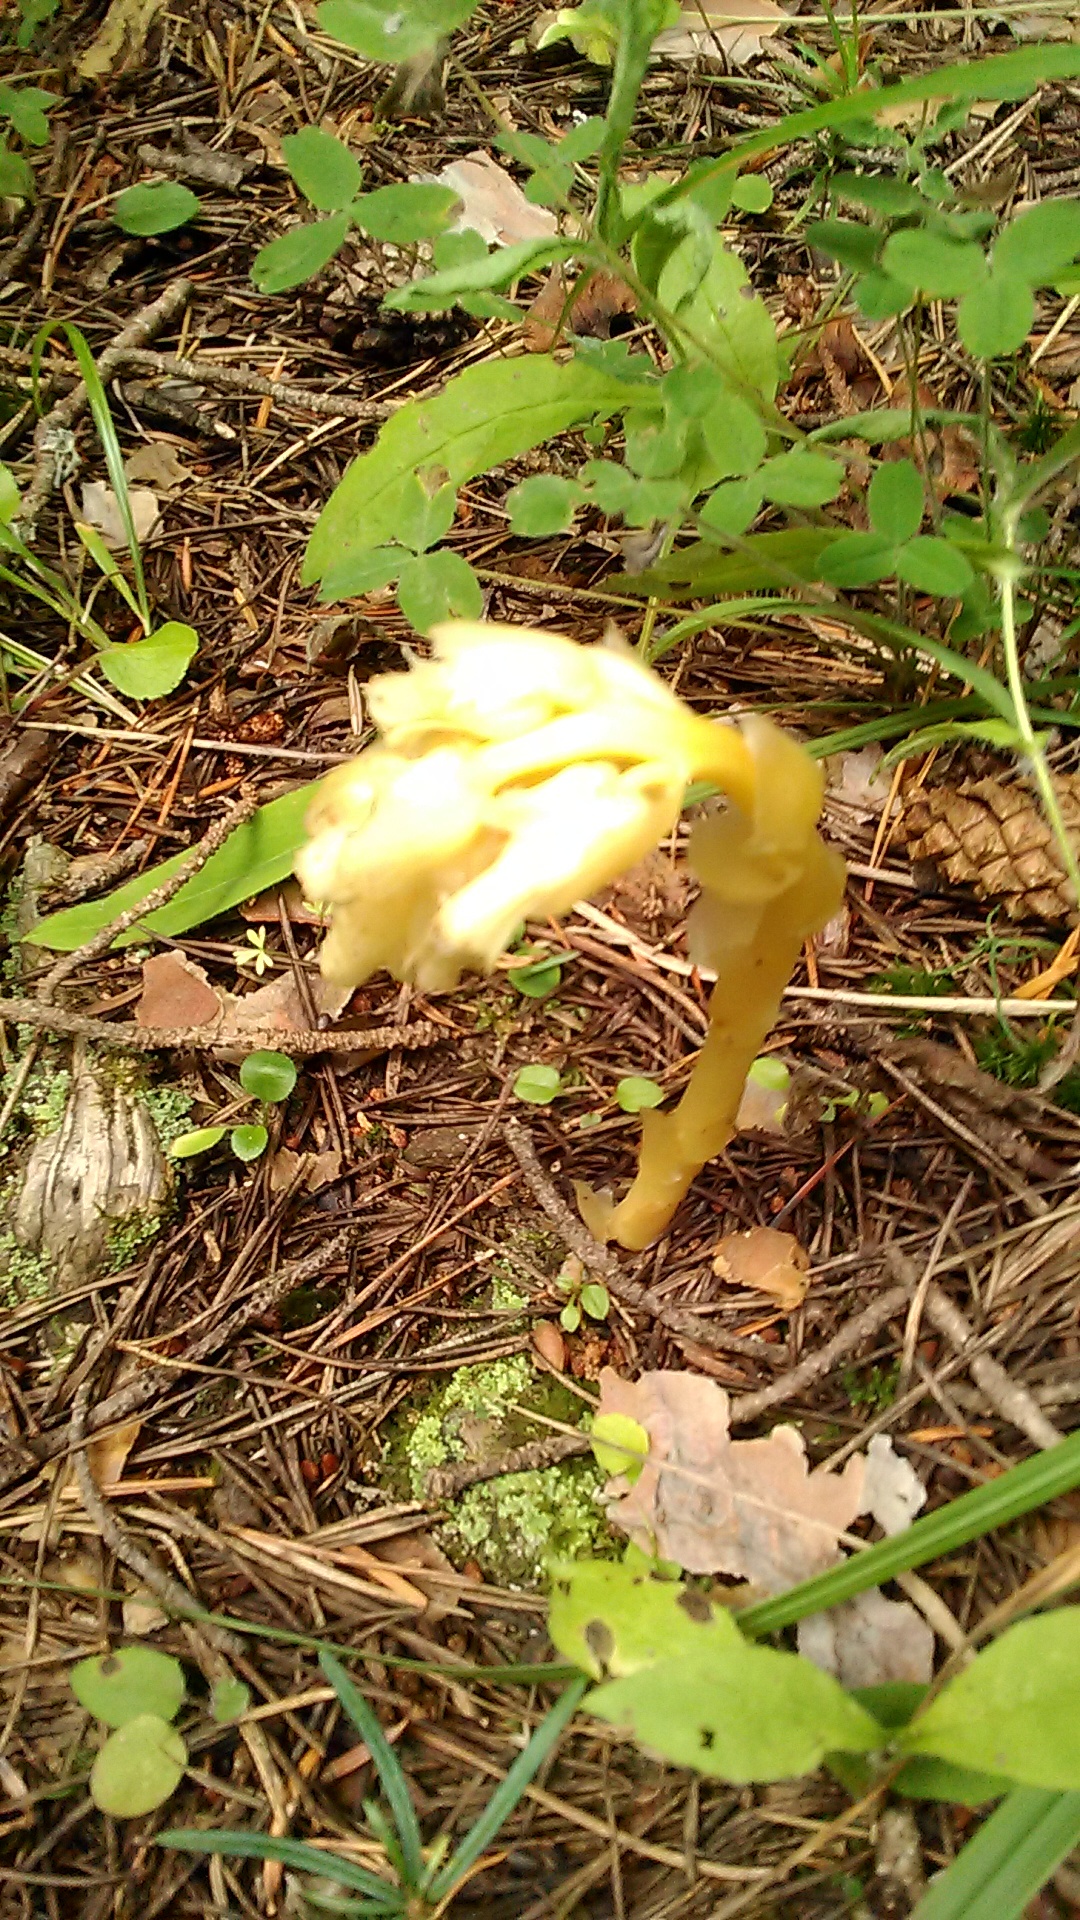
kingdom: Plantae
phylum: Tracheophyta
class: Magnoliopsida
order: Ericales
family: Ericaceae
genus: Hypopitys
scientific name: Hypopitys monotropa
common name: Yellow bird's-nest
